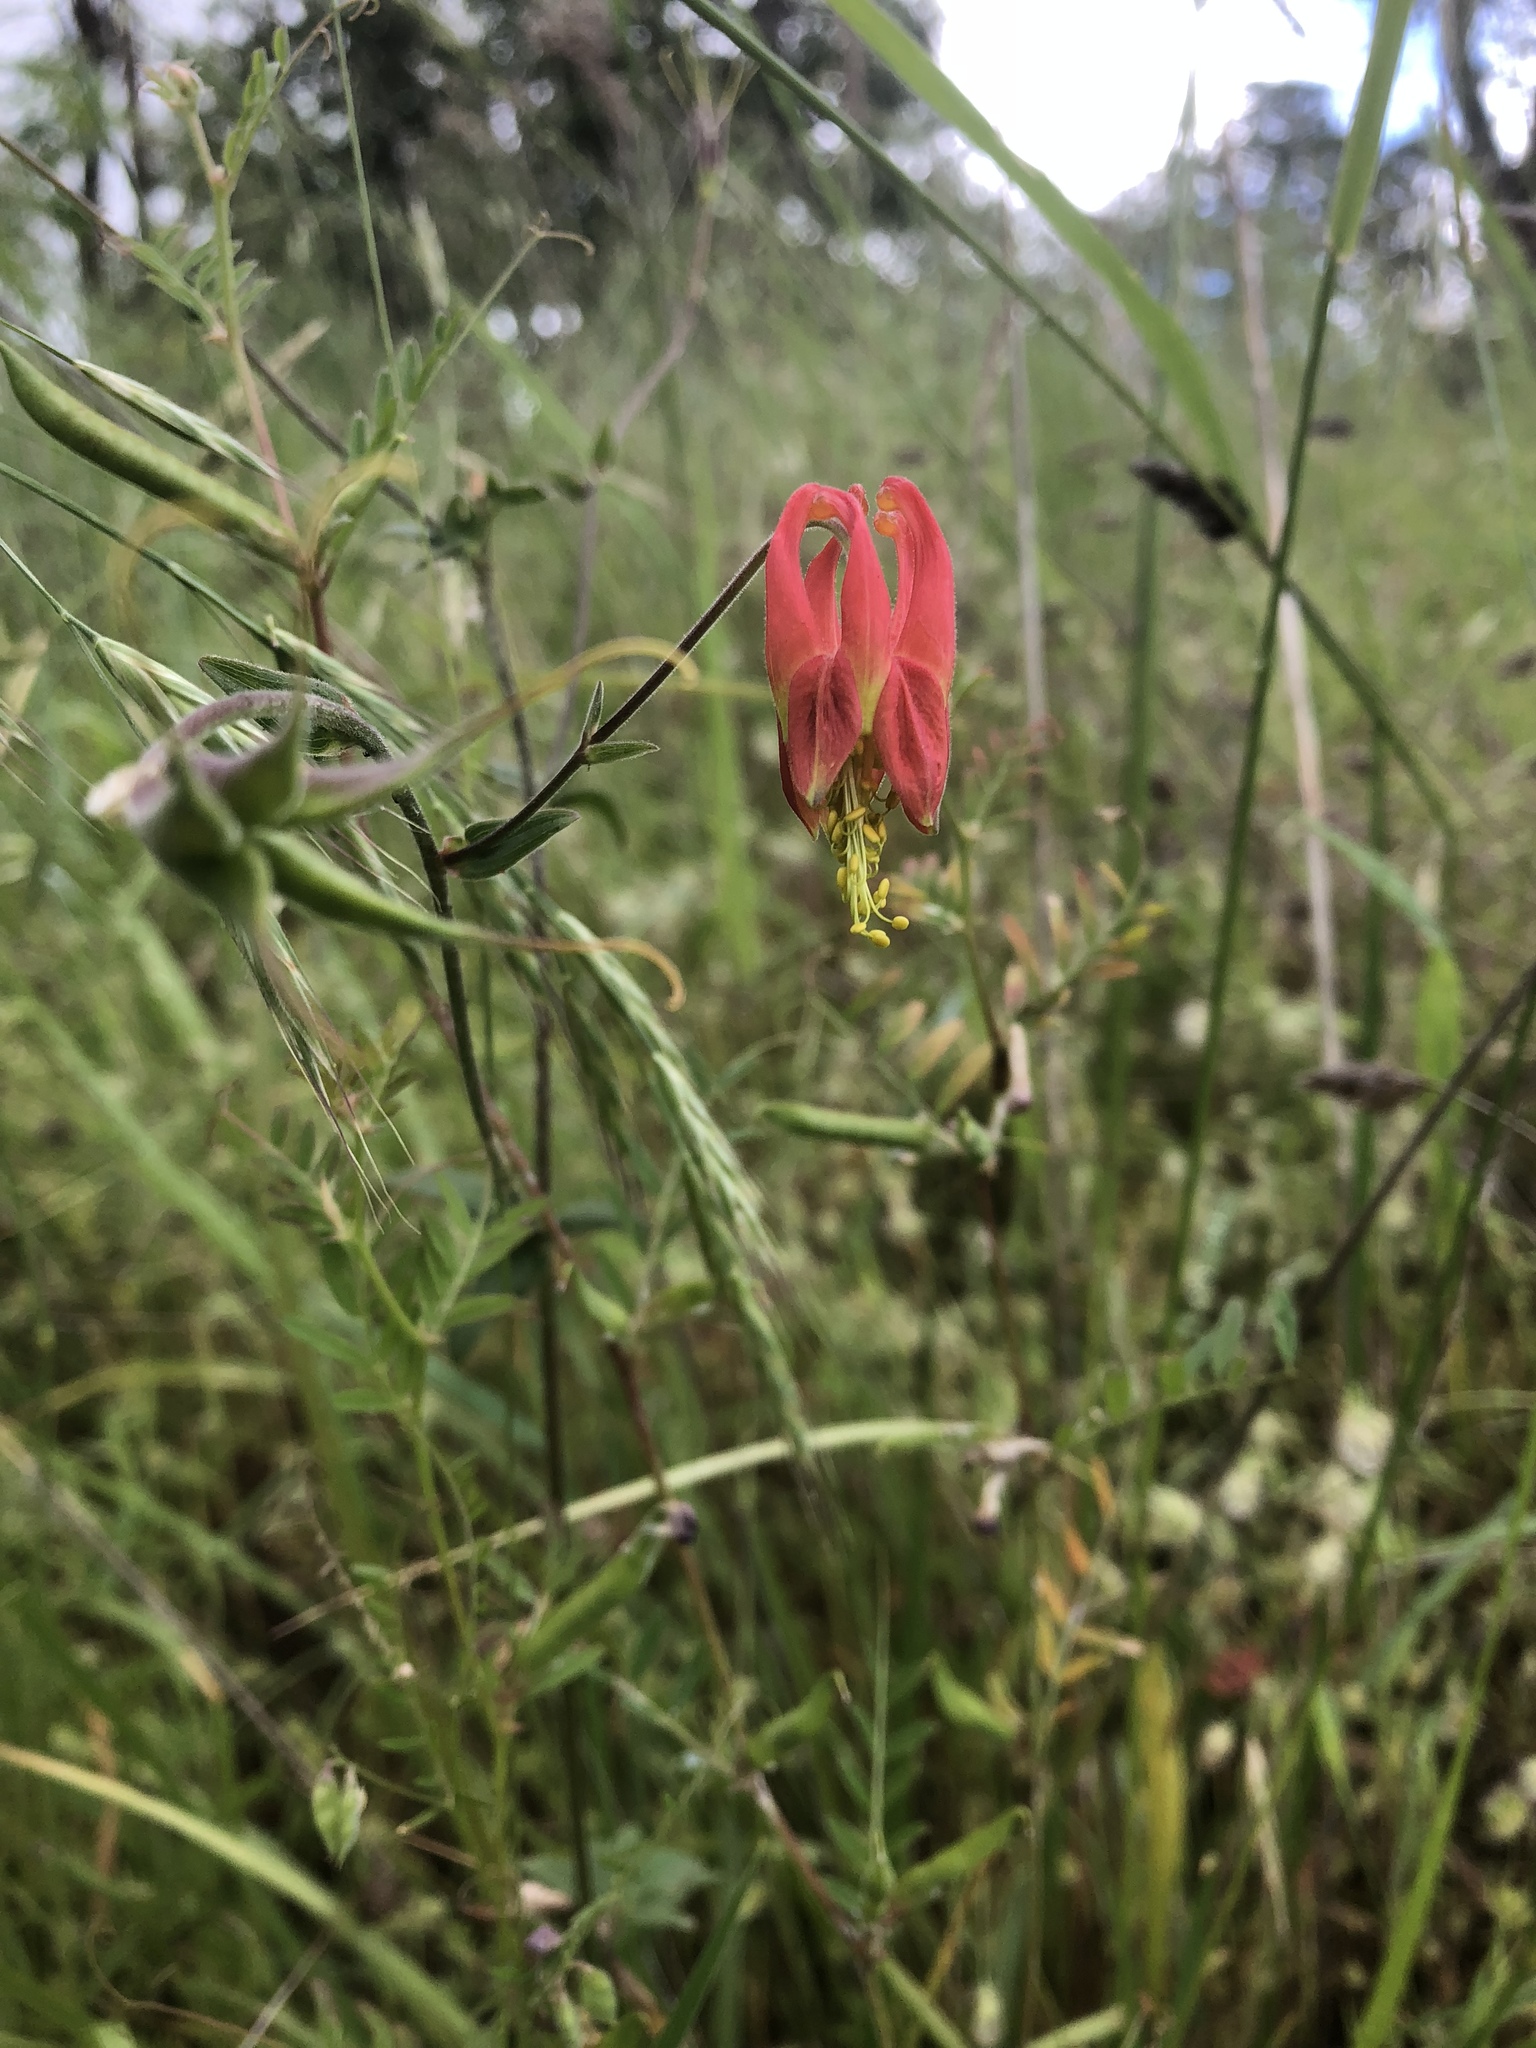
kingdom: Plantae
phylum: Tracheophyta
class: Magnoliopsida
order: Ranunculales
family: Ranunculaceae
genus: Aquilegia
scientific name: Aquilegia formosa
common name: Sitka columbine
